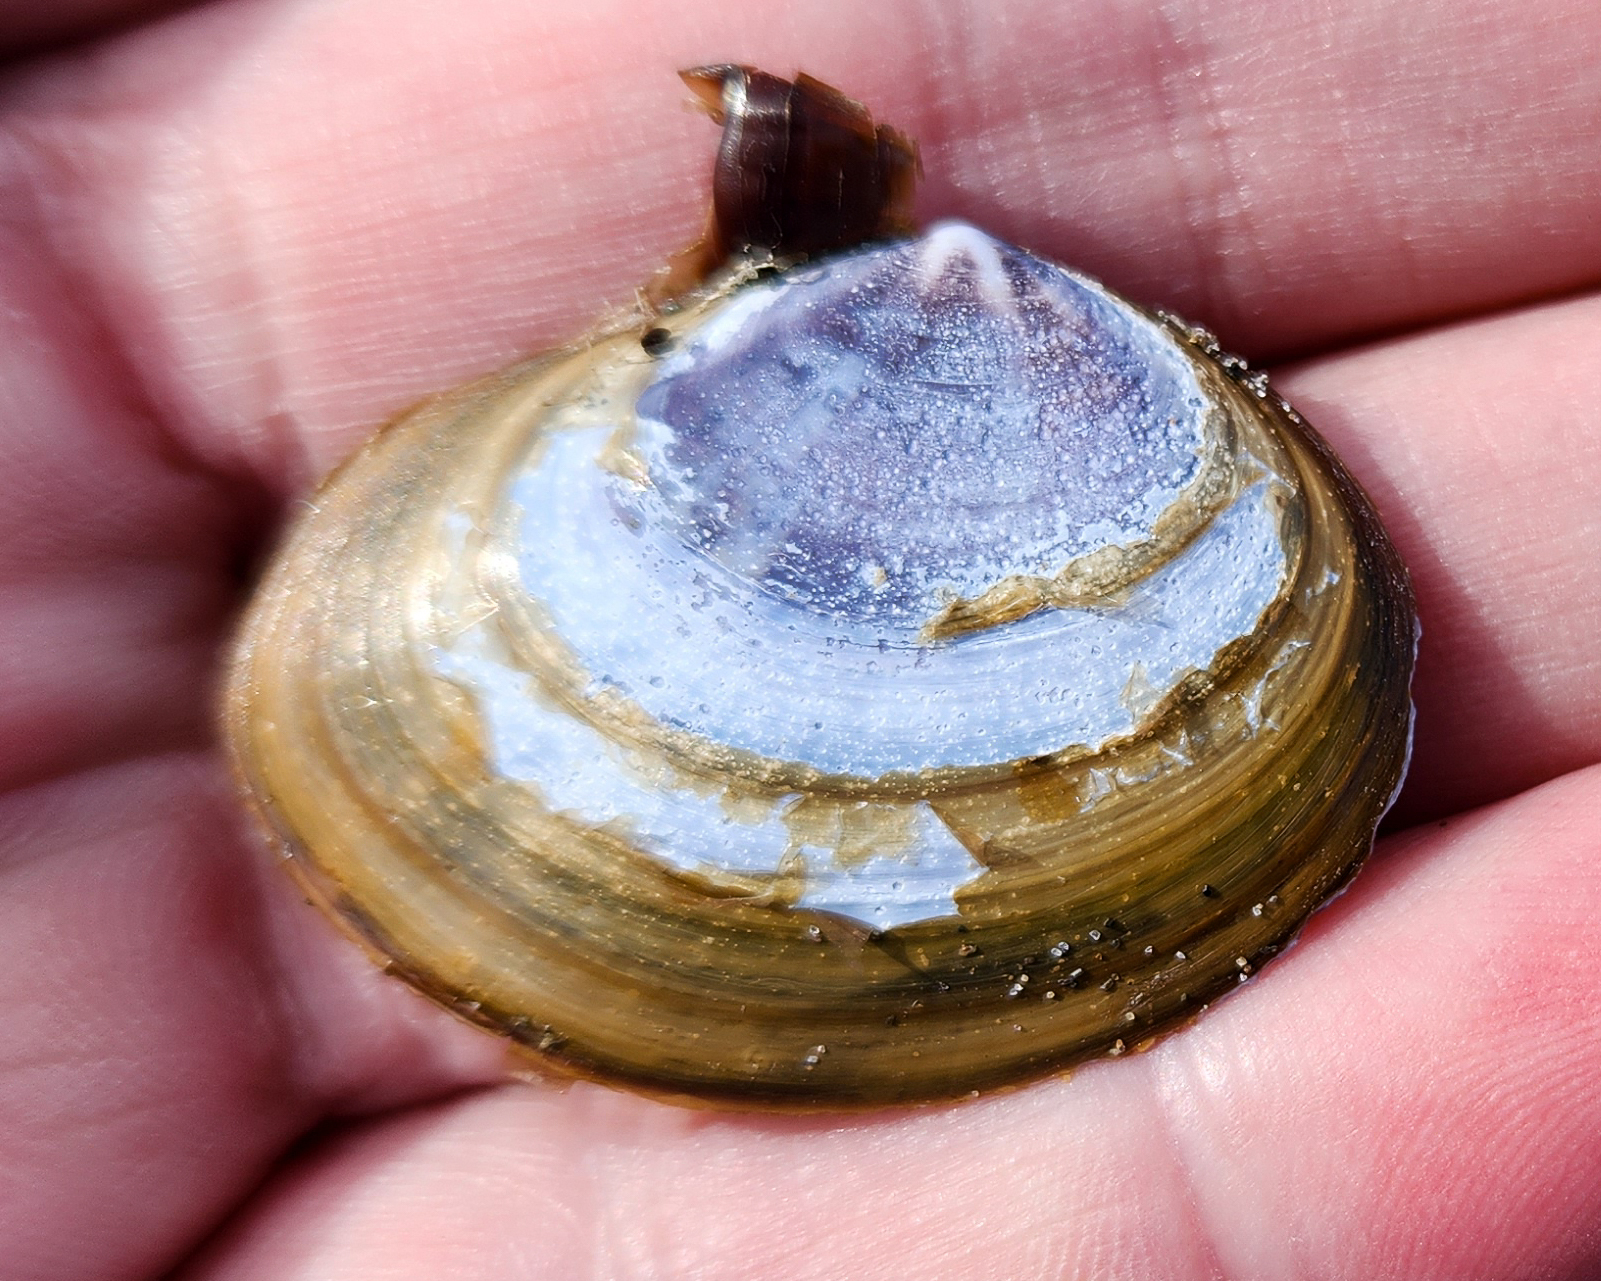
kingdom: Animalia
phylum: Mollusca
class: Bivalvia
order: Cardiida
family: Psammobiidae
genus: Nuttallia
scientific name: Nuttallia obscurata
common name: Purple mahogany-clam
